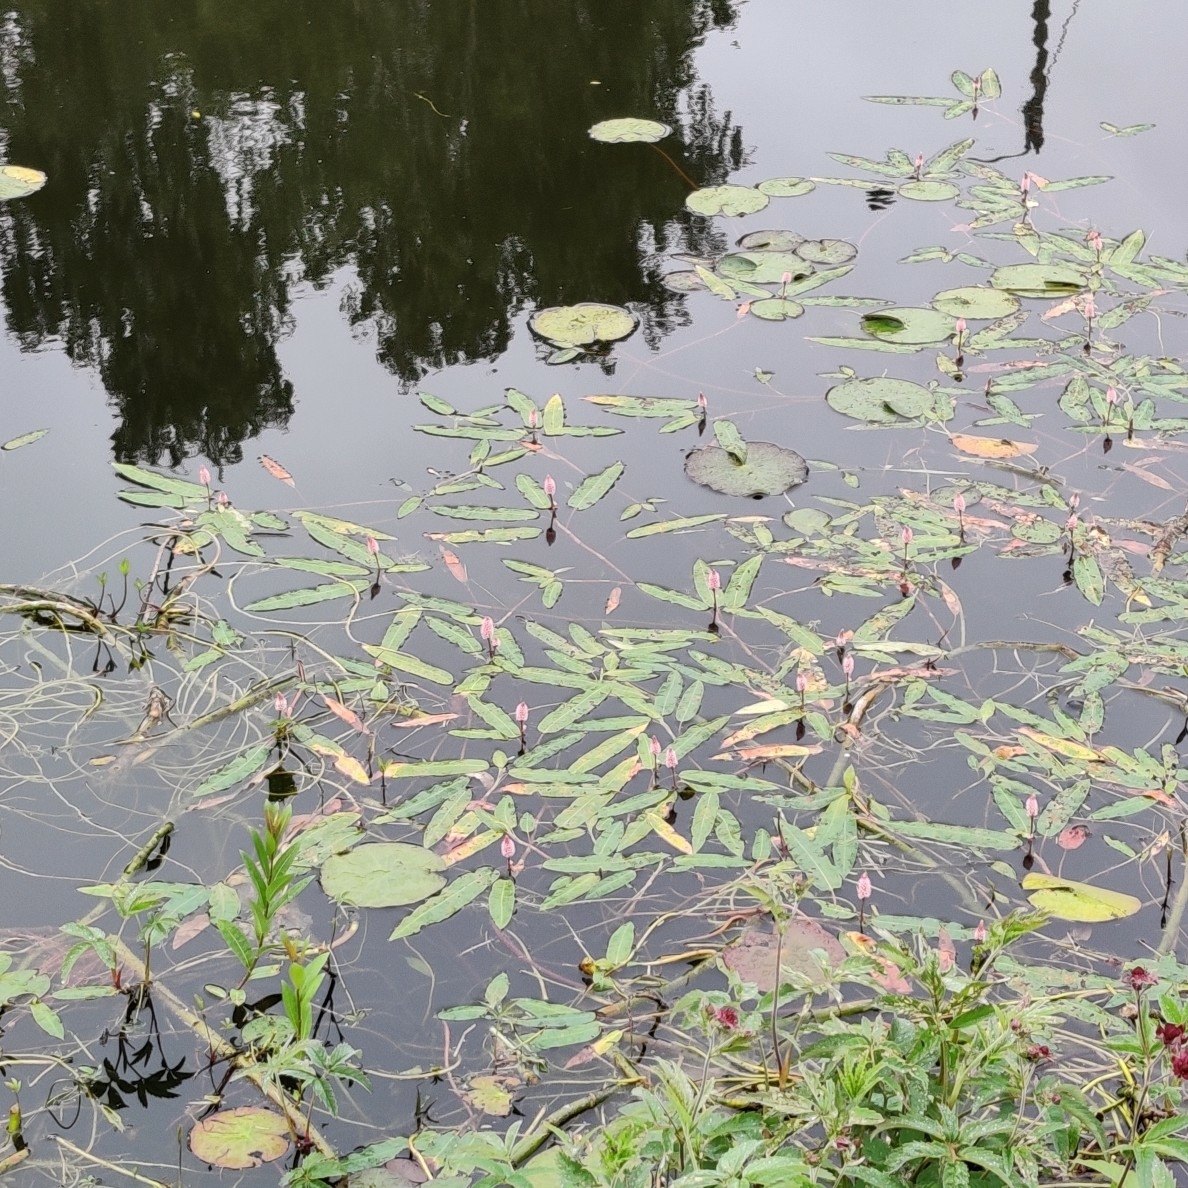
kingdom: Plantae
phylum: Tracheophyta
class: Magnoliopsida
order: Caryophyllales
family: Polygonaceae
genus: Persicaria
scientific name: Persicaria amphibia
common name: Amphibious bistort
